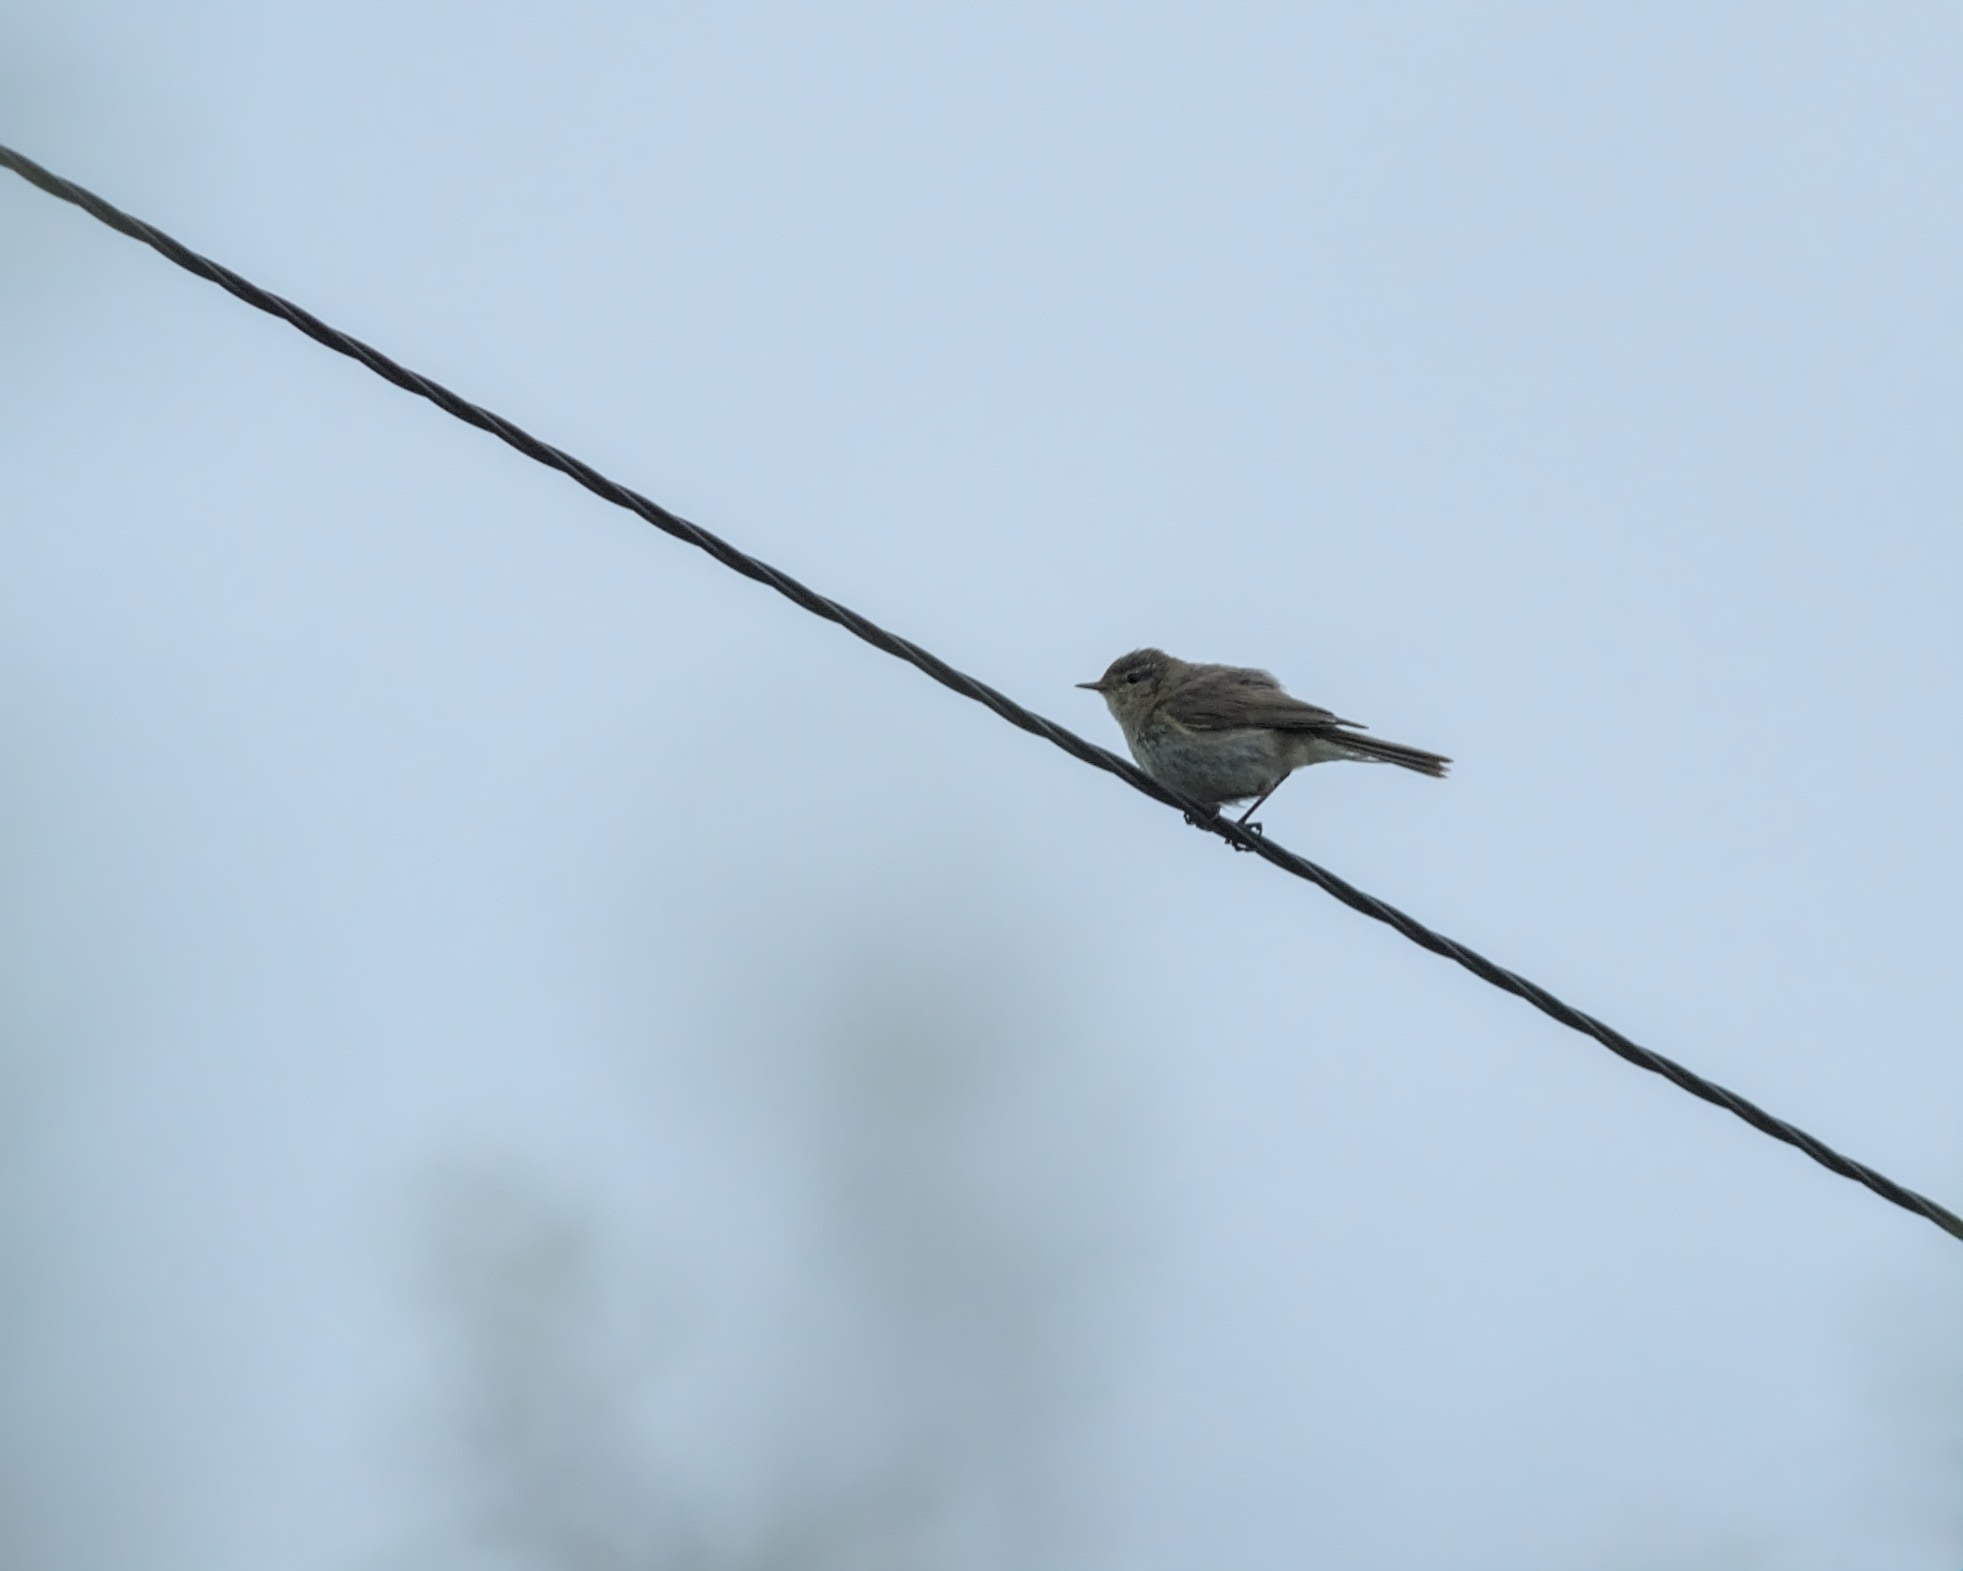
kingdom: Animalia
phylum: Chordata
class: Aves
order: Passeriformes
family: Phylloscopidae
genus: Phylloscopus
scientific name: Phylloscopus collybita
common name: Common chiffchaff
